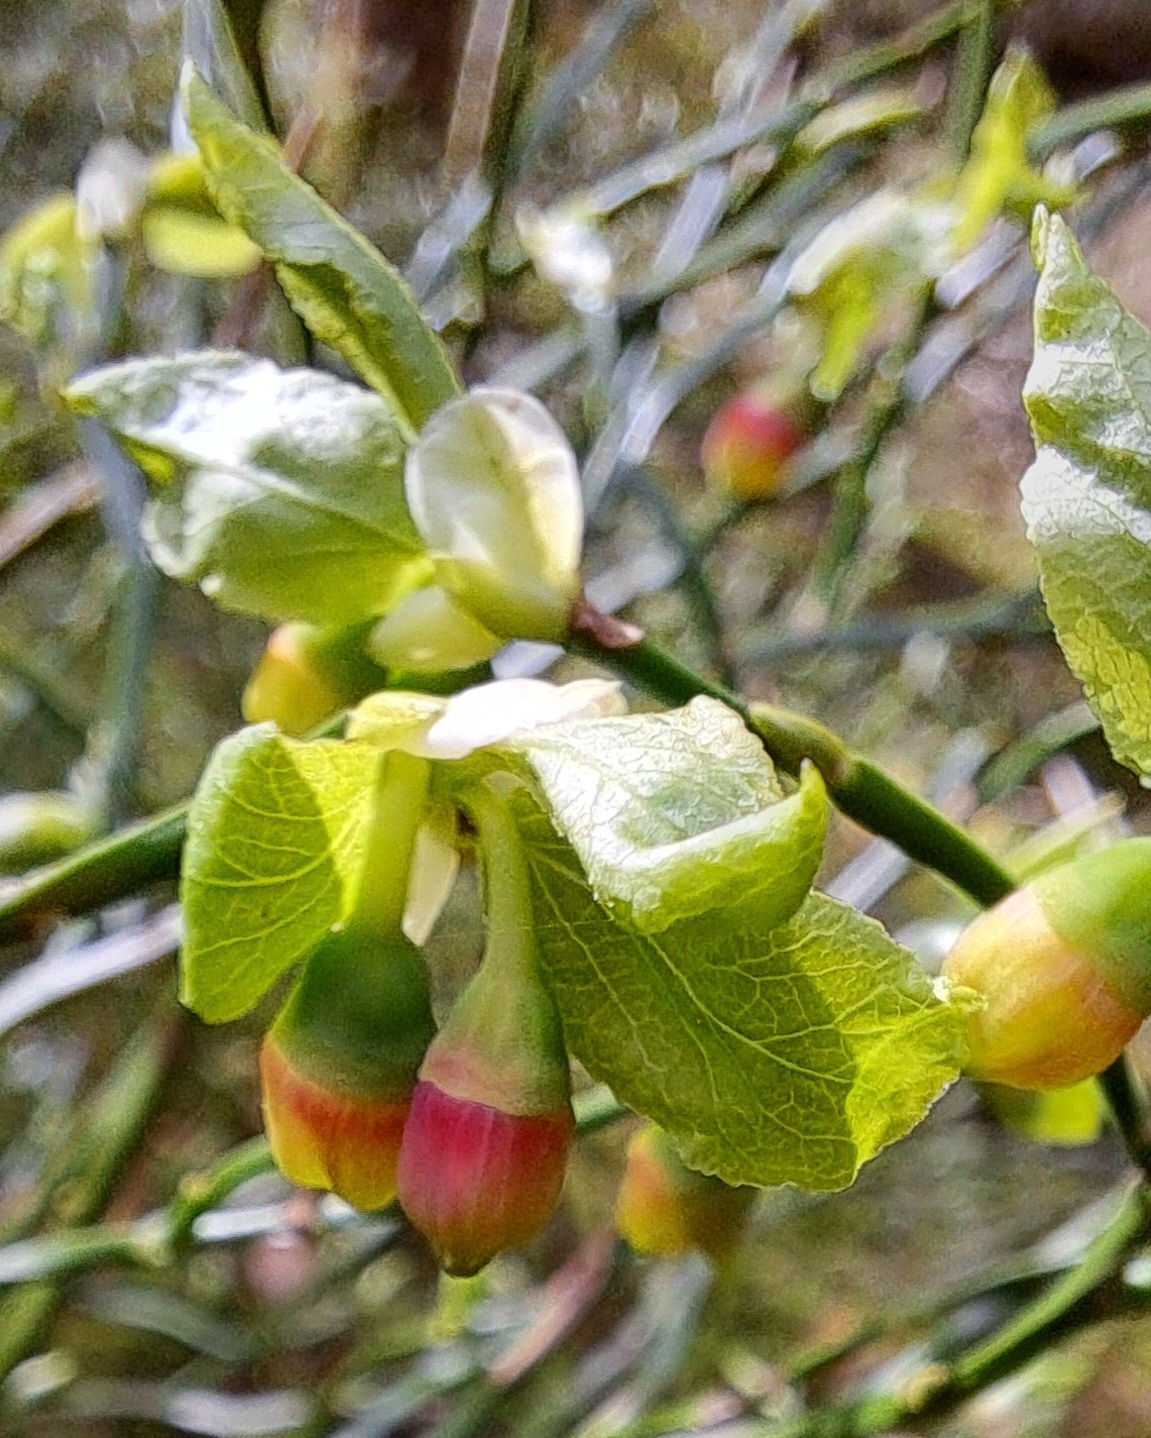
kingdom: Plantae
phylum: Tracheophyta
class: Magnoliopsida
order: Ericales
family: Ericaceae
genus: Vaccinium
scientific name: Vaccinium myrtillus
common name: Bilberry
